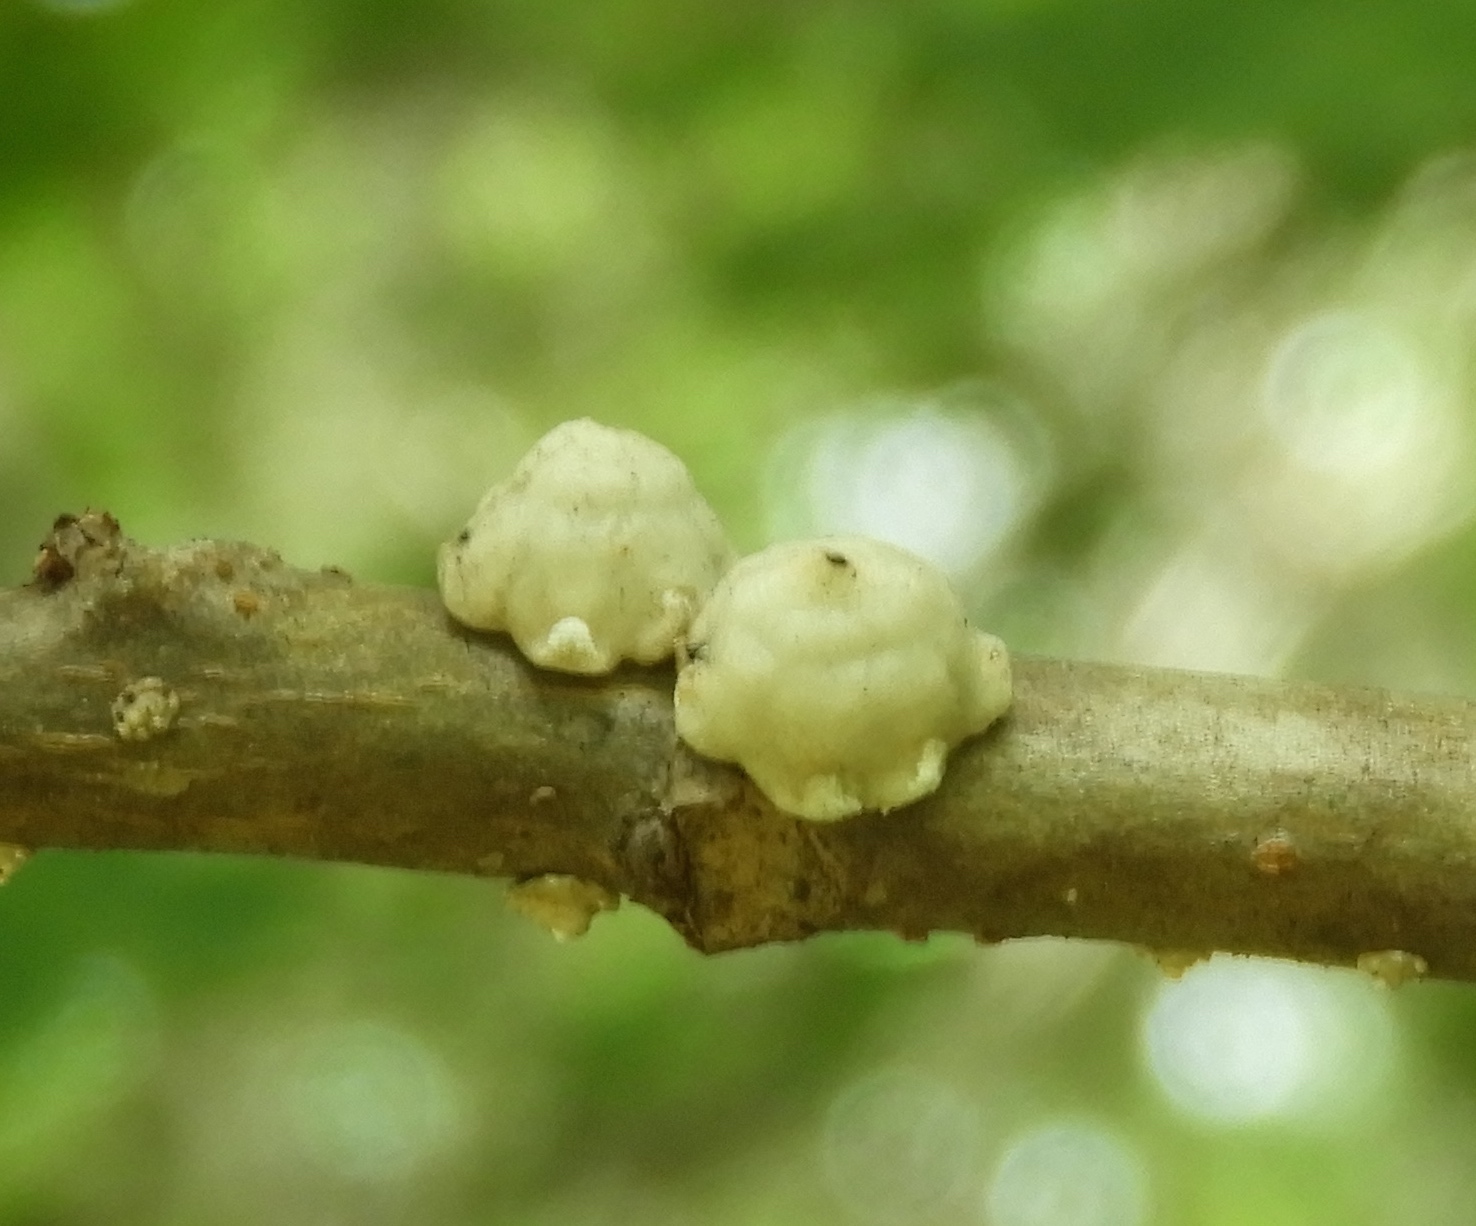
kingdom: Animalia
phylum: Arthropoda
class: Insecta
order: Hemiptera
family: Coccidae
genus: Ceroplastes
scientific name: Ceroplastes
